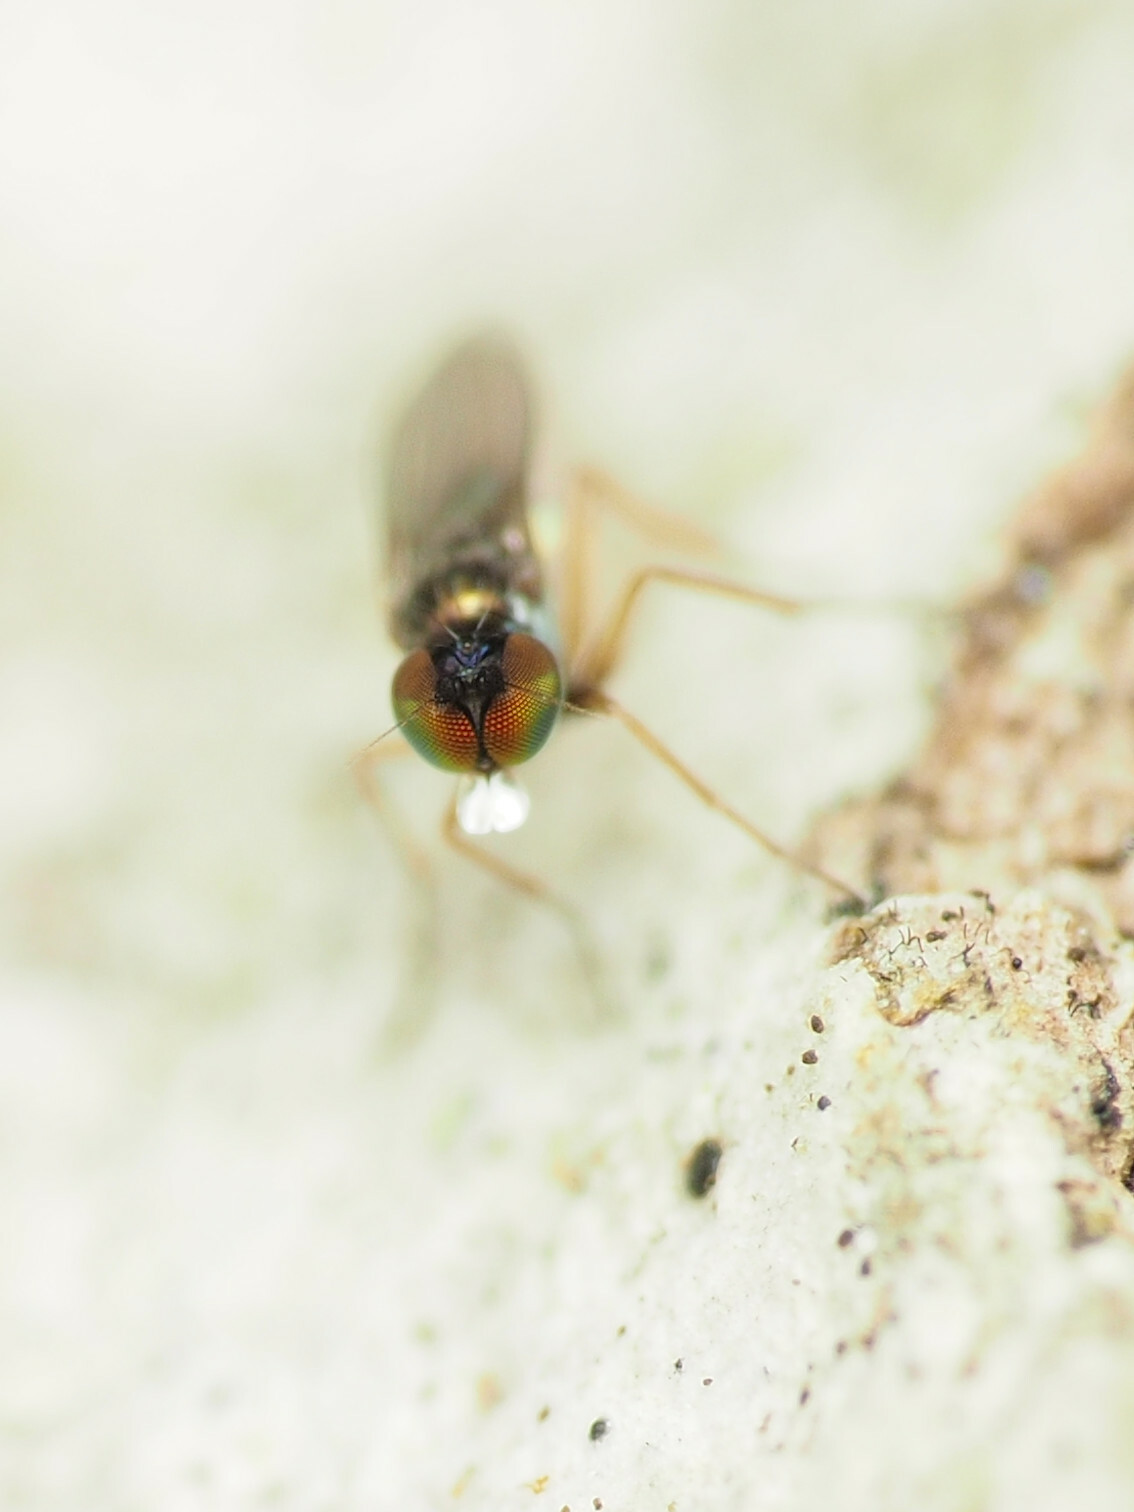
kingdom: Animalia
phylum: Arthropoda
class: Insecta
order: Diptera
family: Dolichopodidae
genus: Chrysotus
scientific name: Chrysotus crosbyi
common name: Longlegged fly
